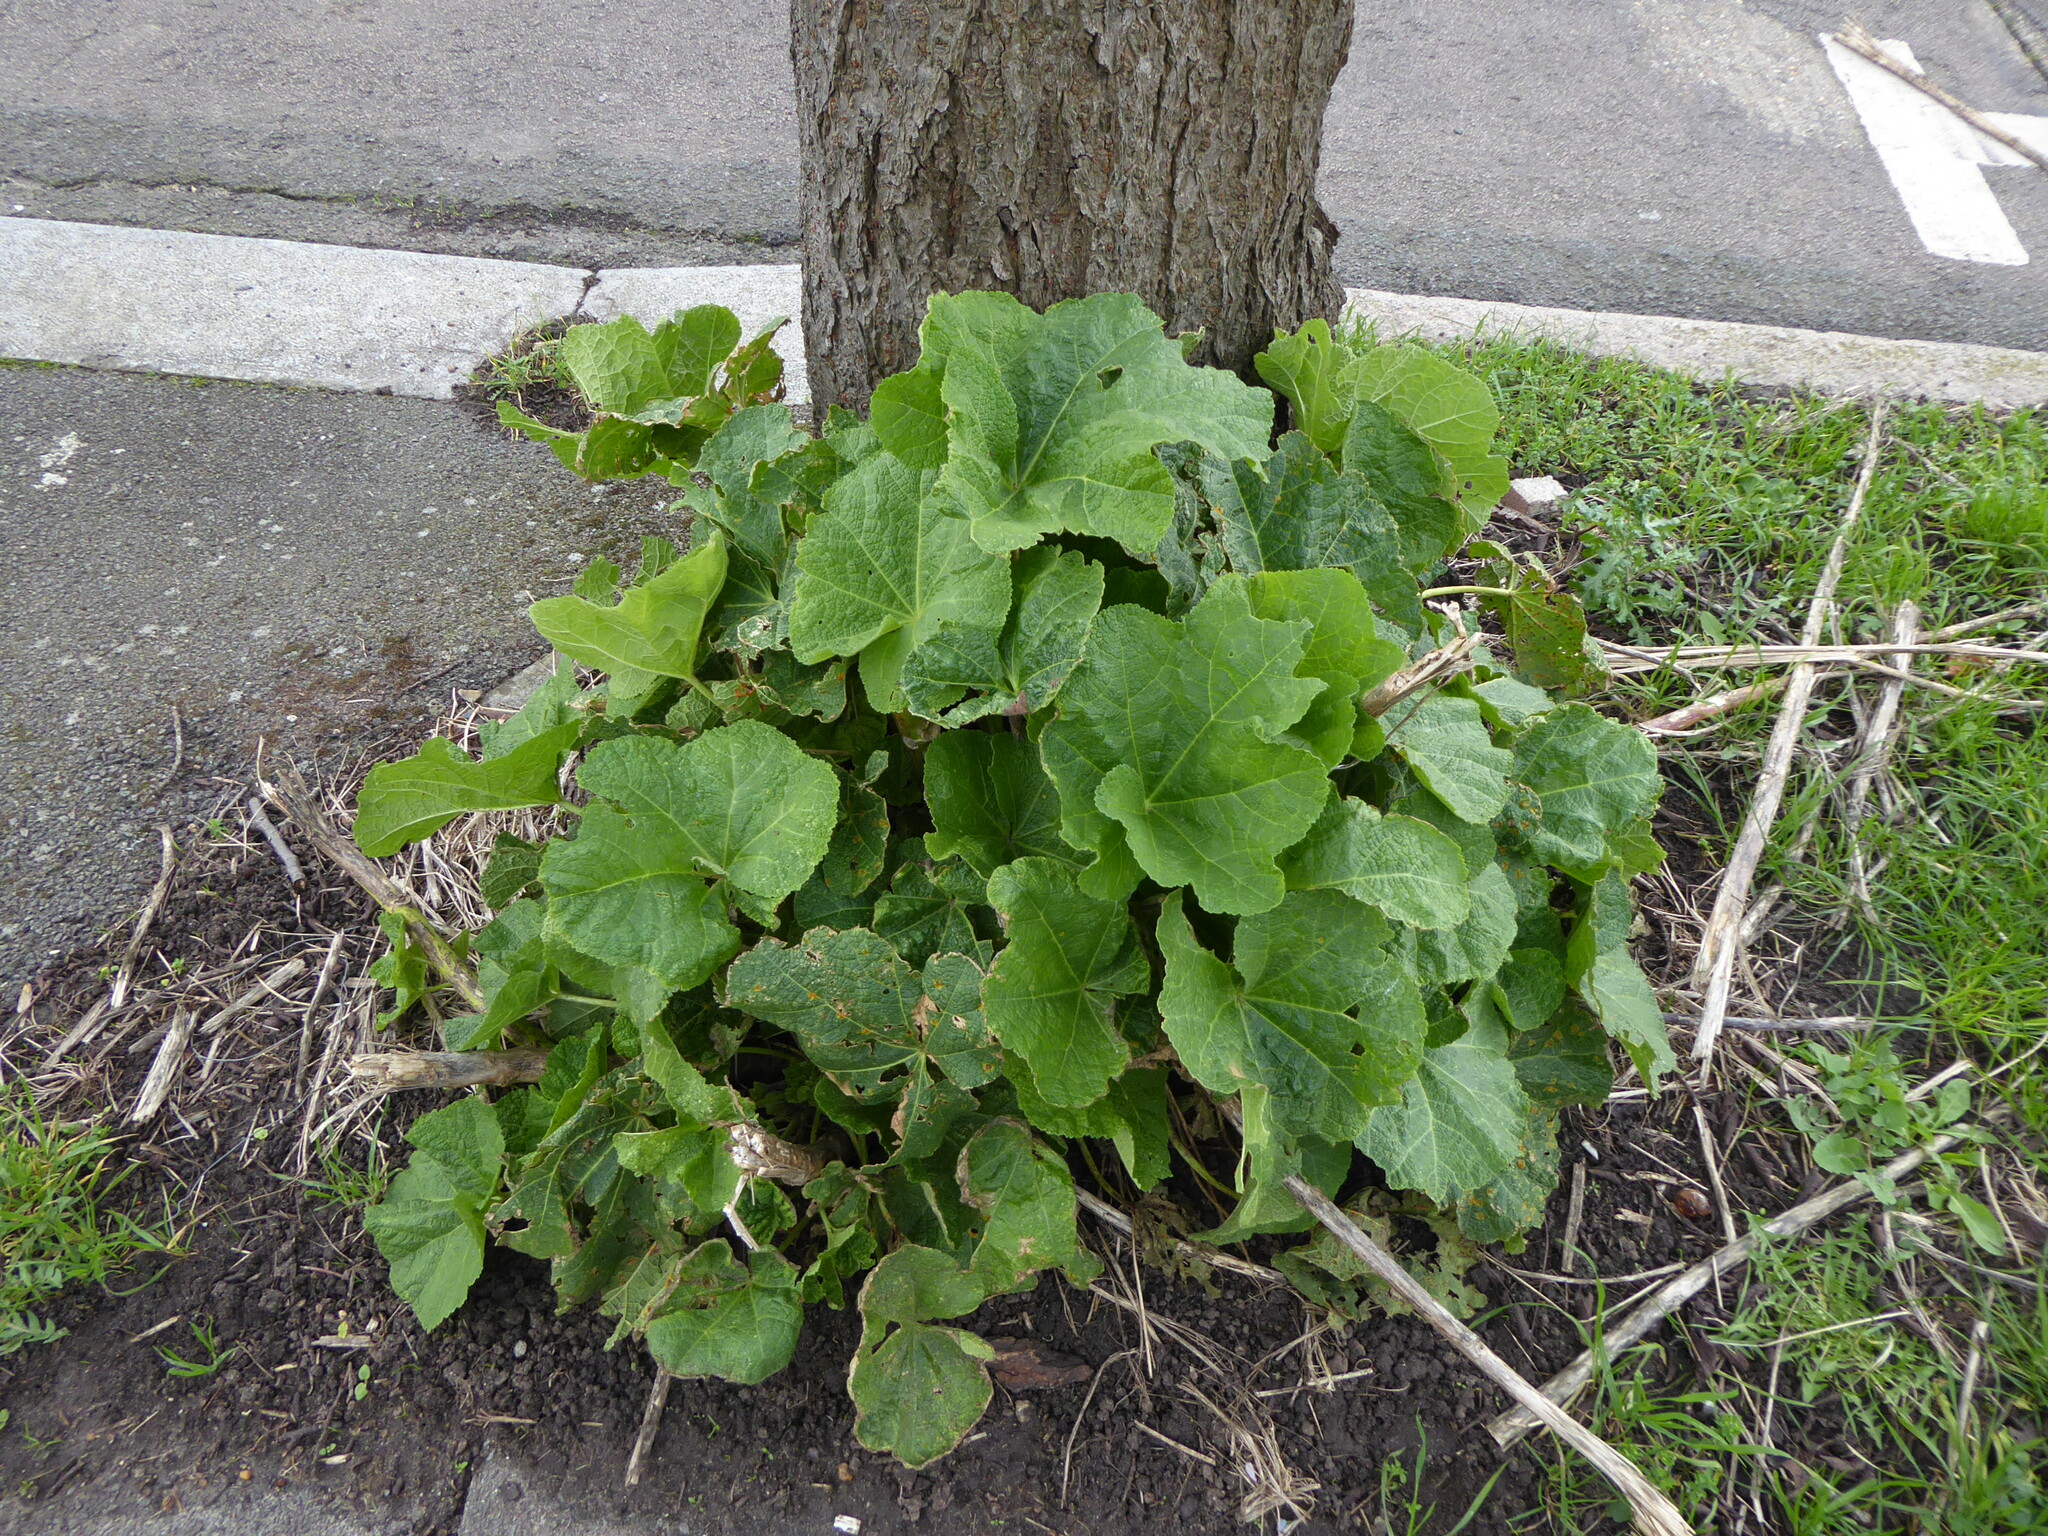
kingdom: Plantae
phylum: Tracheophyta
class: Magnoliopsida
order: Malvales
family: Malvaceae
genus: Alcea
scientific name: Alcea rosea
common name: Hollyhock
